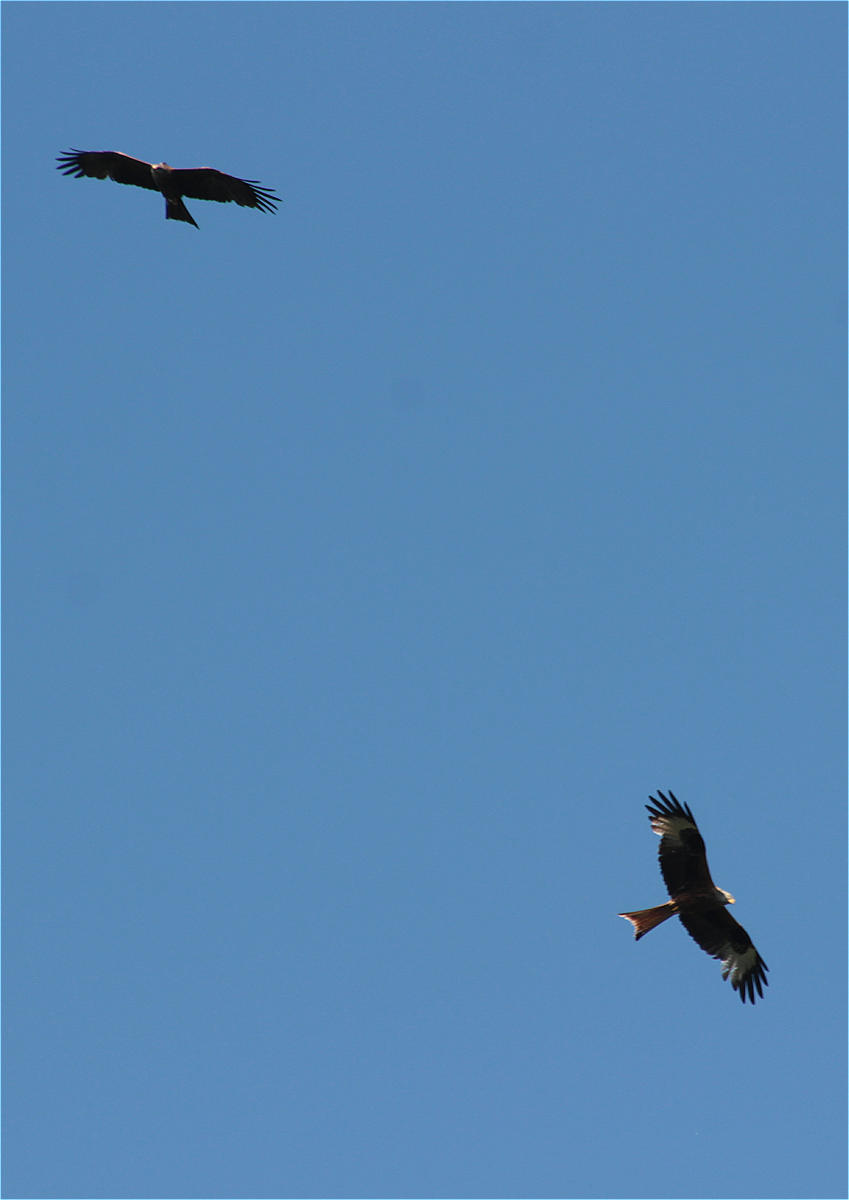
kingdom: Animalia
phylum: Chordata
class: Aves
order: Accipitriformes
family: Accipitridae
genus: Milvus
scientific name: Milvus milvus
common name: Red kite
